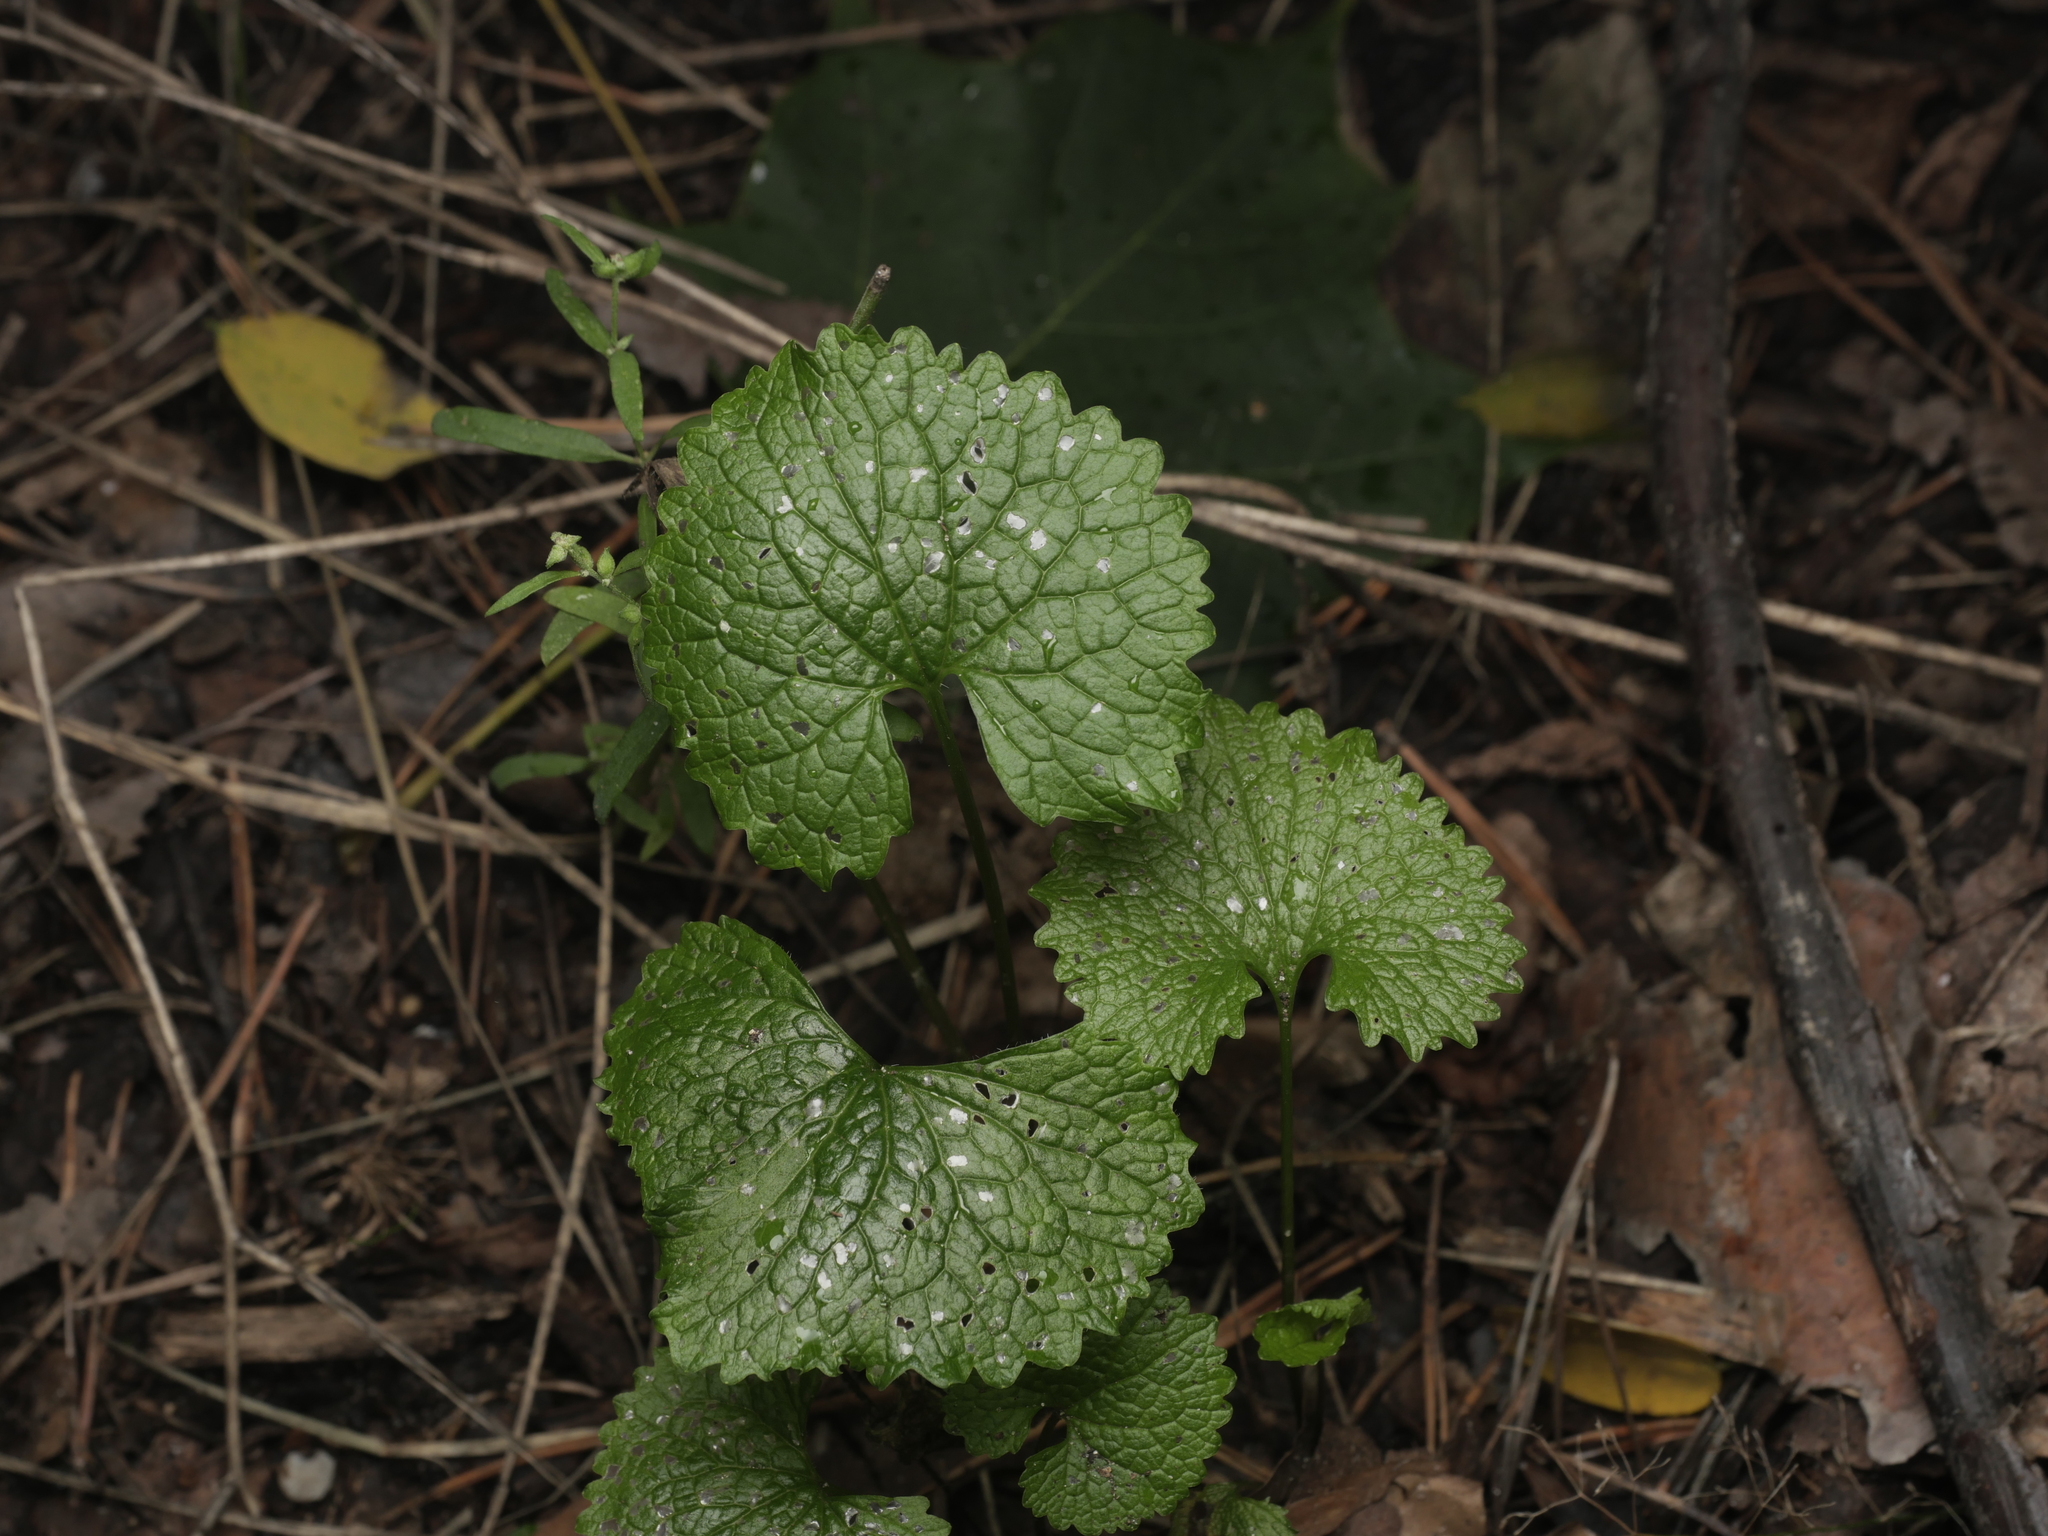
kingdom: Plantae
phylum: Tracheophyta
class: Magnoliopsida
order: Brassicales
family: Brassicaceae
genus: Alliaria
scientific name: Alliaria petiolata
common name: Garlic mustard
